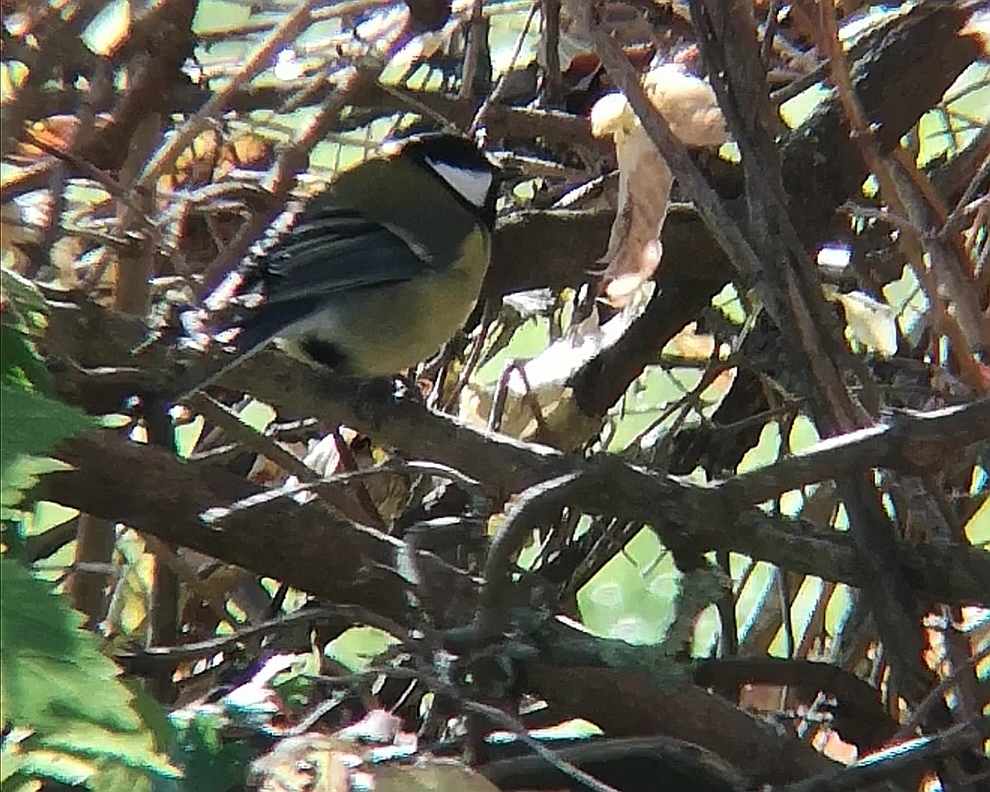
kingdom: Animalia
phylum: Chordata
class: Aves
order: Passeriformes
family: Paridae
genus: Parus
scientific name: Parus major
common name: Great tit
